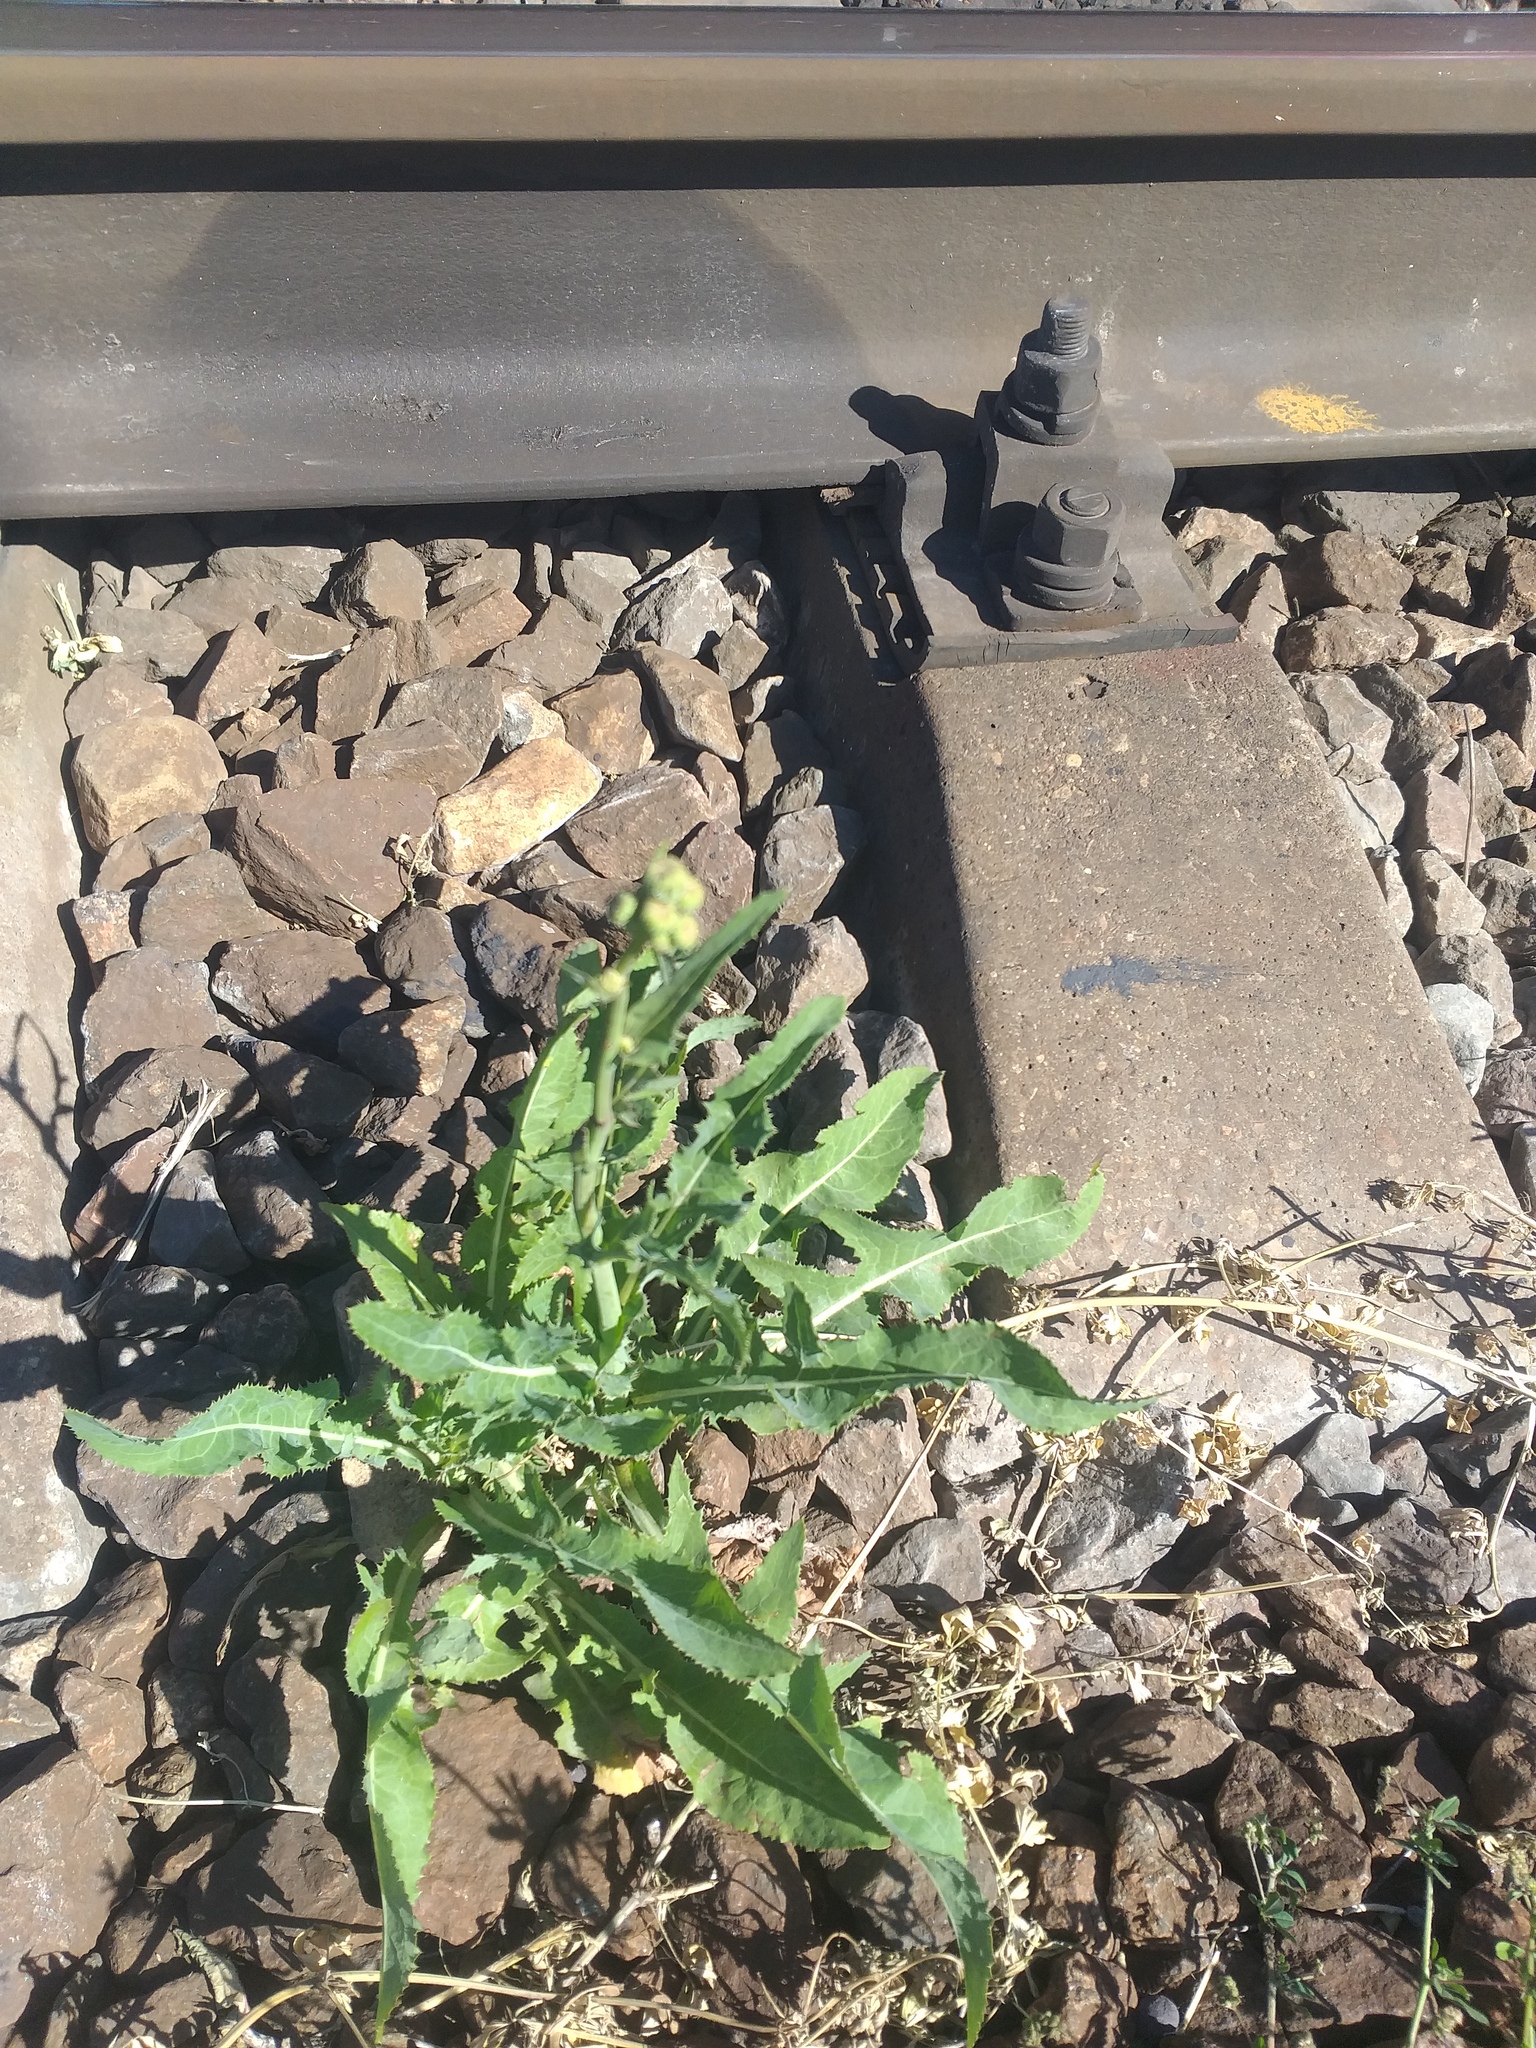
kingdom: Plantae
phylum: Tracheophyta
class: Magnoliopsida
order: Asterales
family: Asteraceae
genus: Sonchus
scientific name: Sonchus arvensis
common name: Perennial sow-thistle
